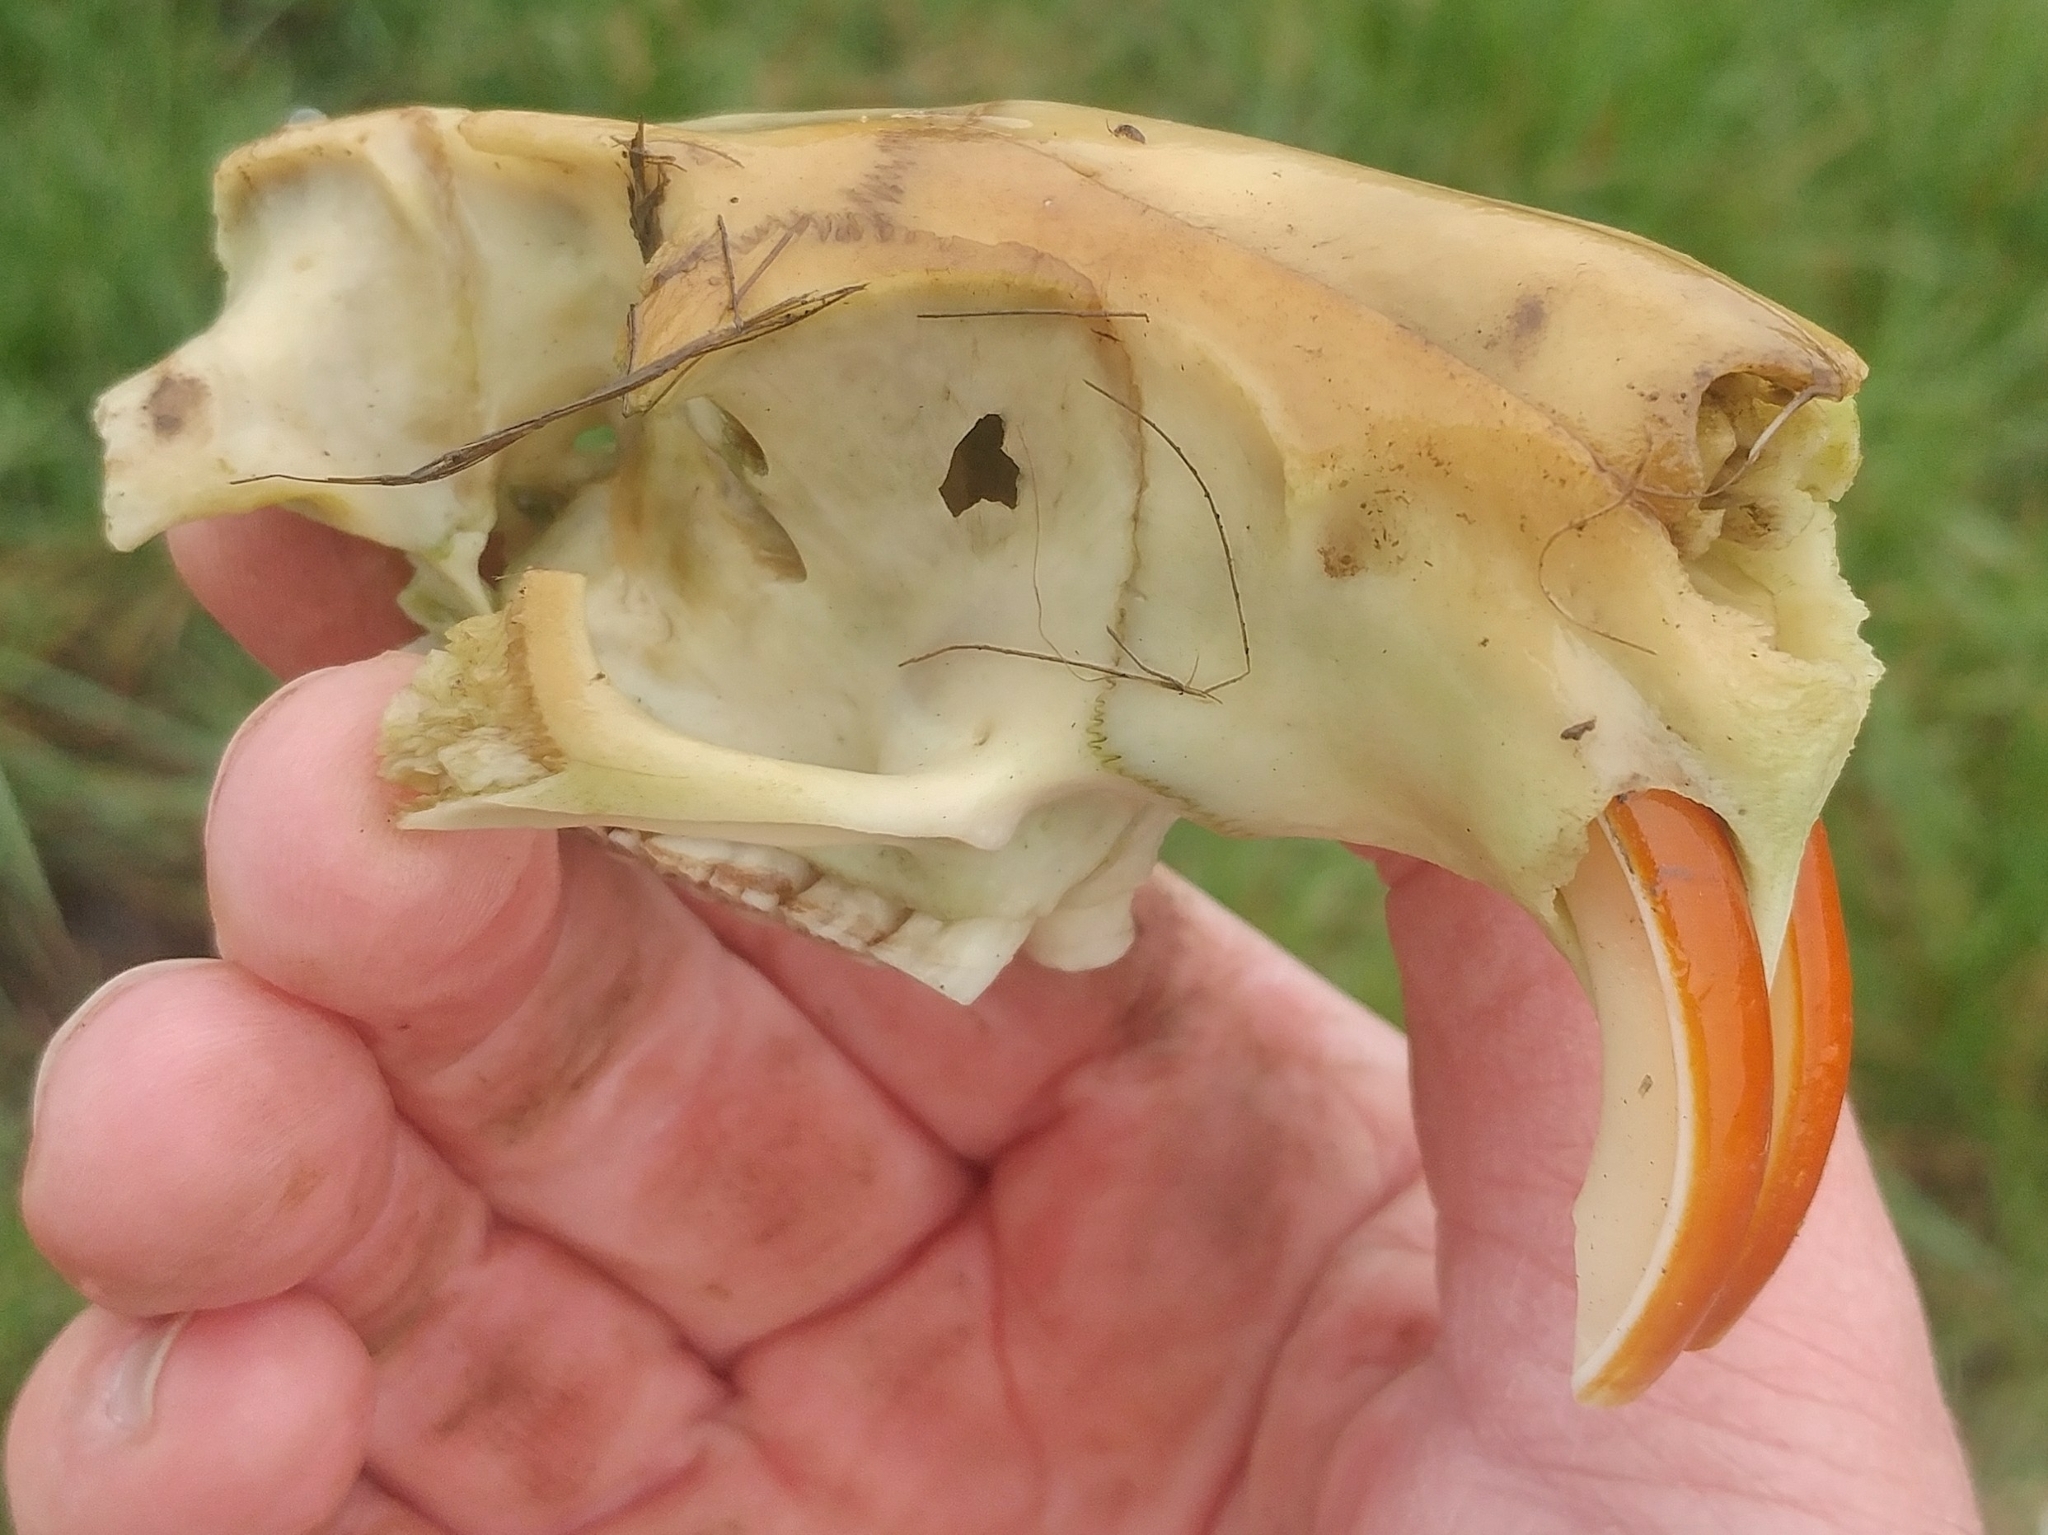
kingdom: Animalia
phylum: Chordata
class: Mammalia
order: Rodentia
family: Myocastoridae
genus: Myocastor
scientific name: Myocastor coypus
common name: Coypu
